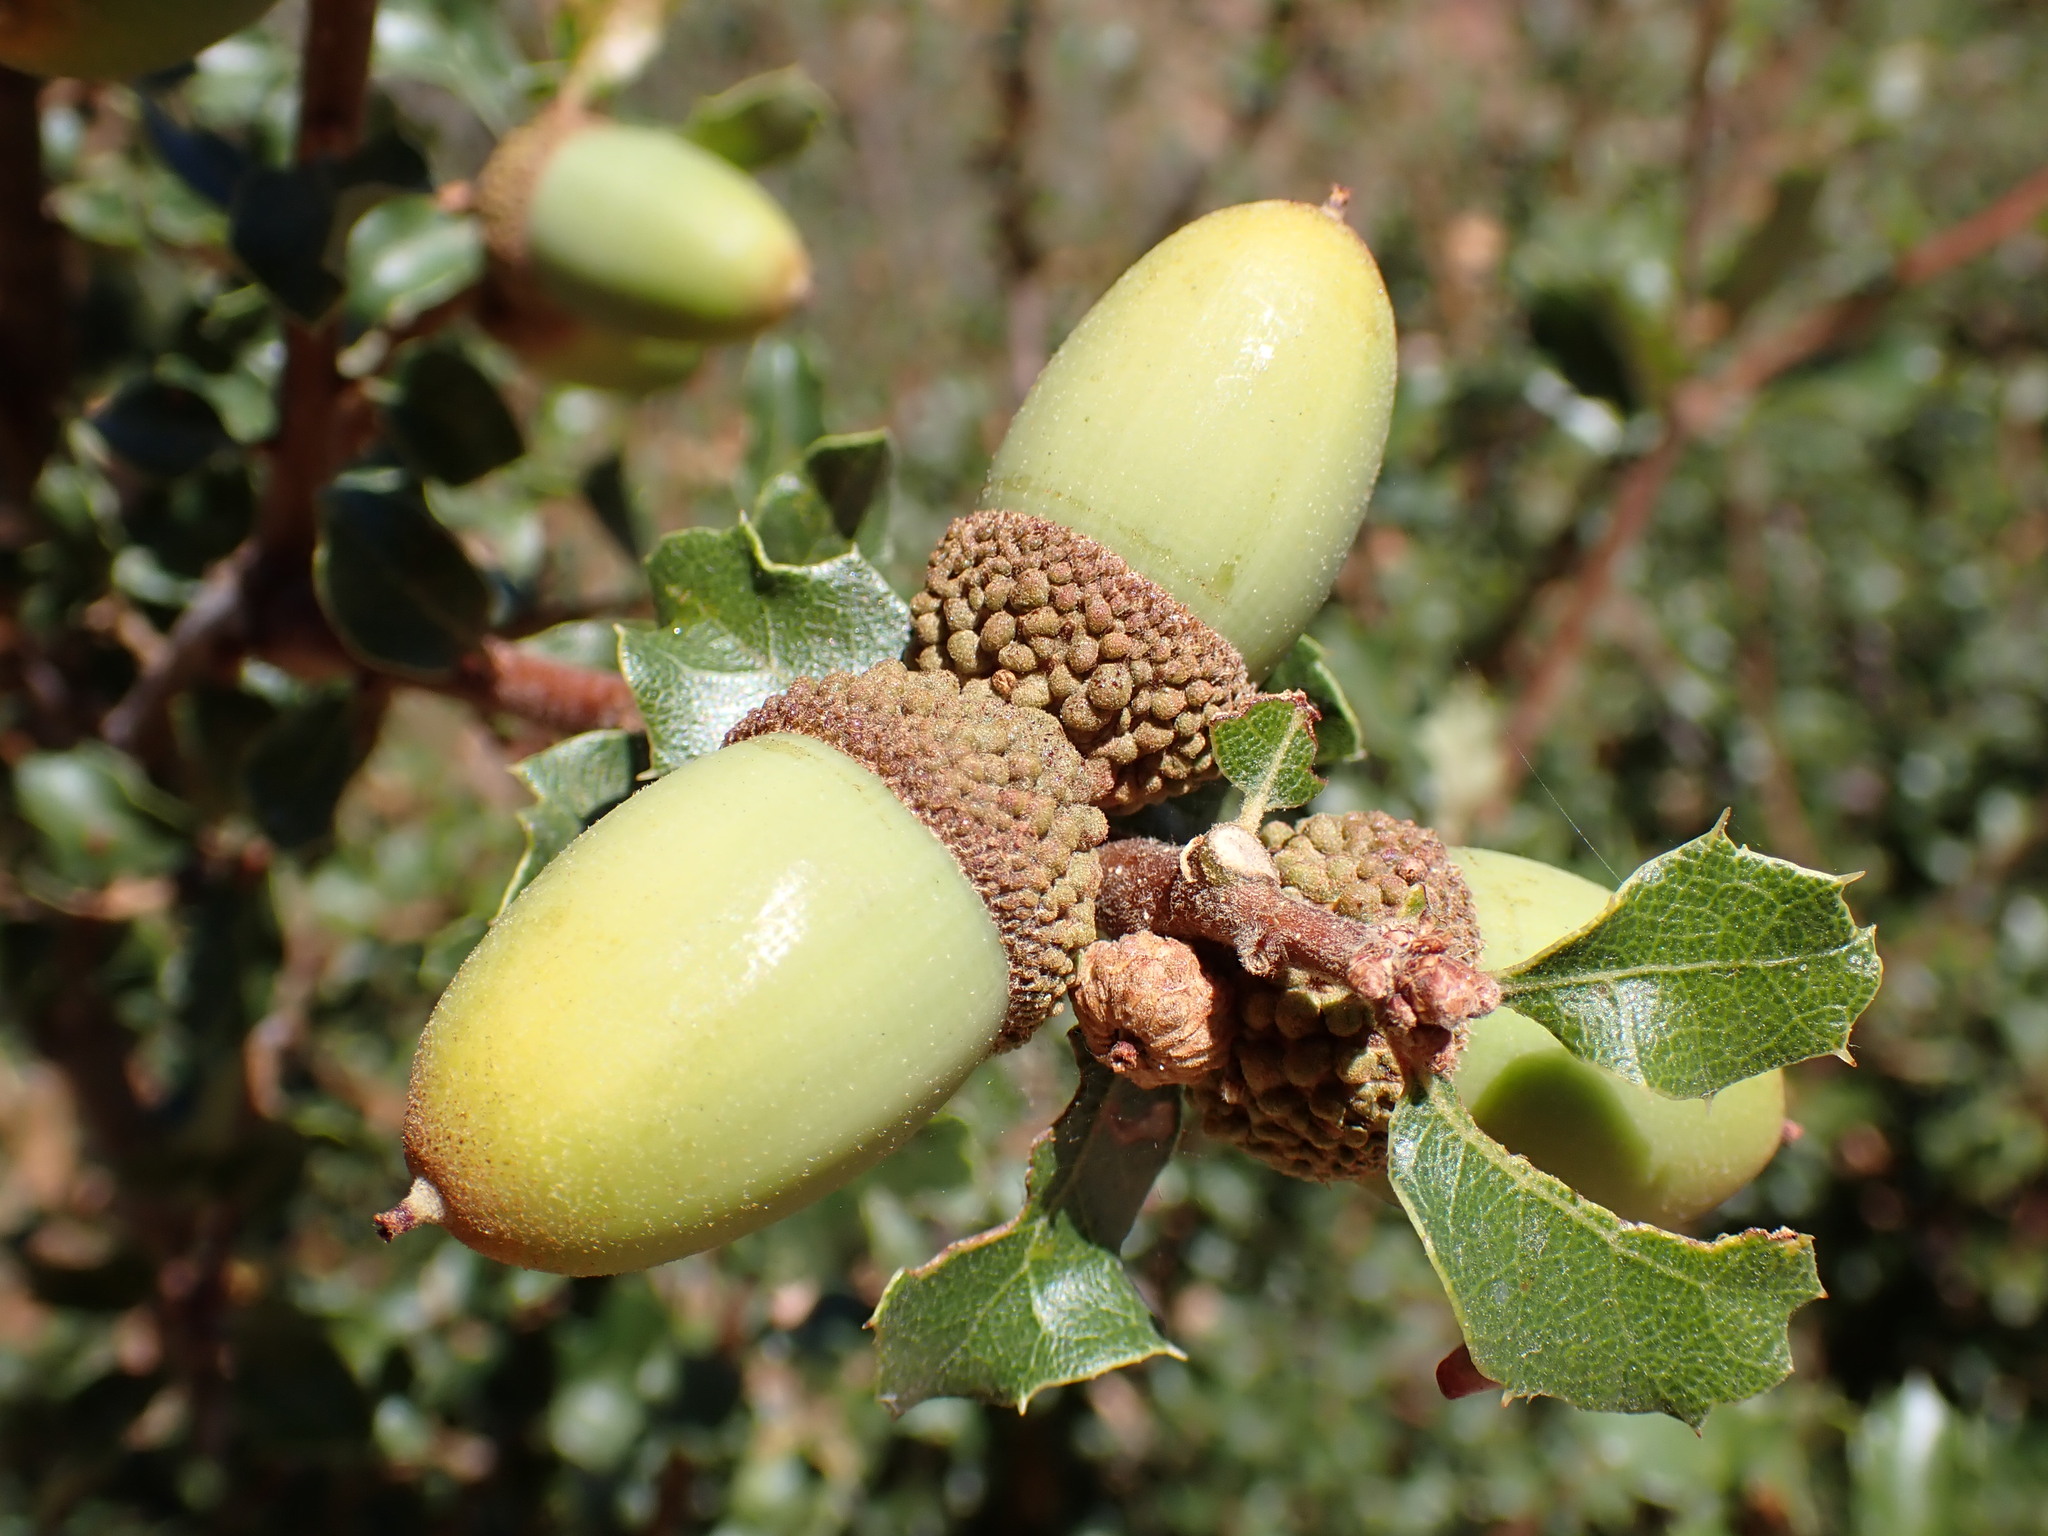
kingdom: Plantae
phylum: Tracheophyta
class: Magnoliopsida
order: Fagales
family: Fagaceae
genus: Quercus
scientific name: Quercus berberidifolia
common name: California scrub oak
